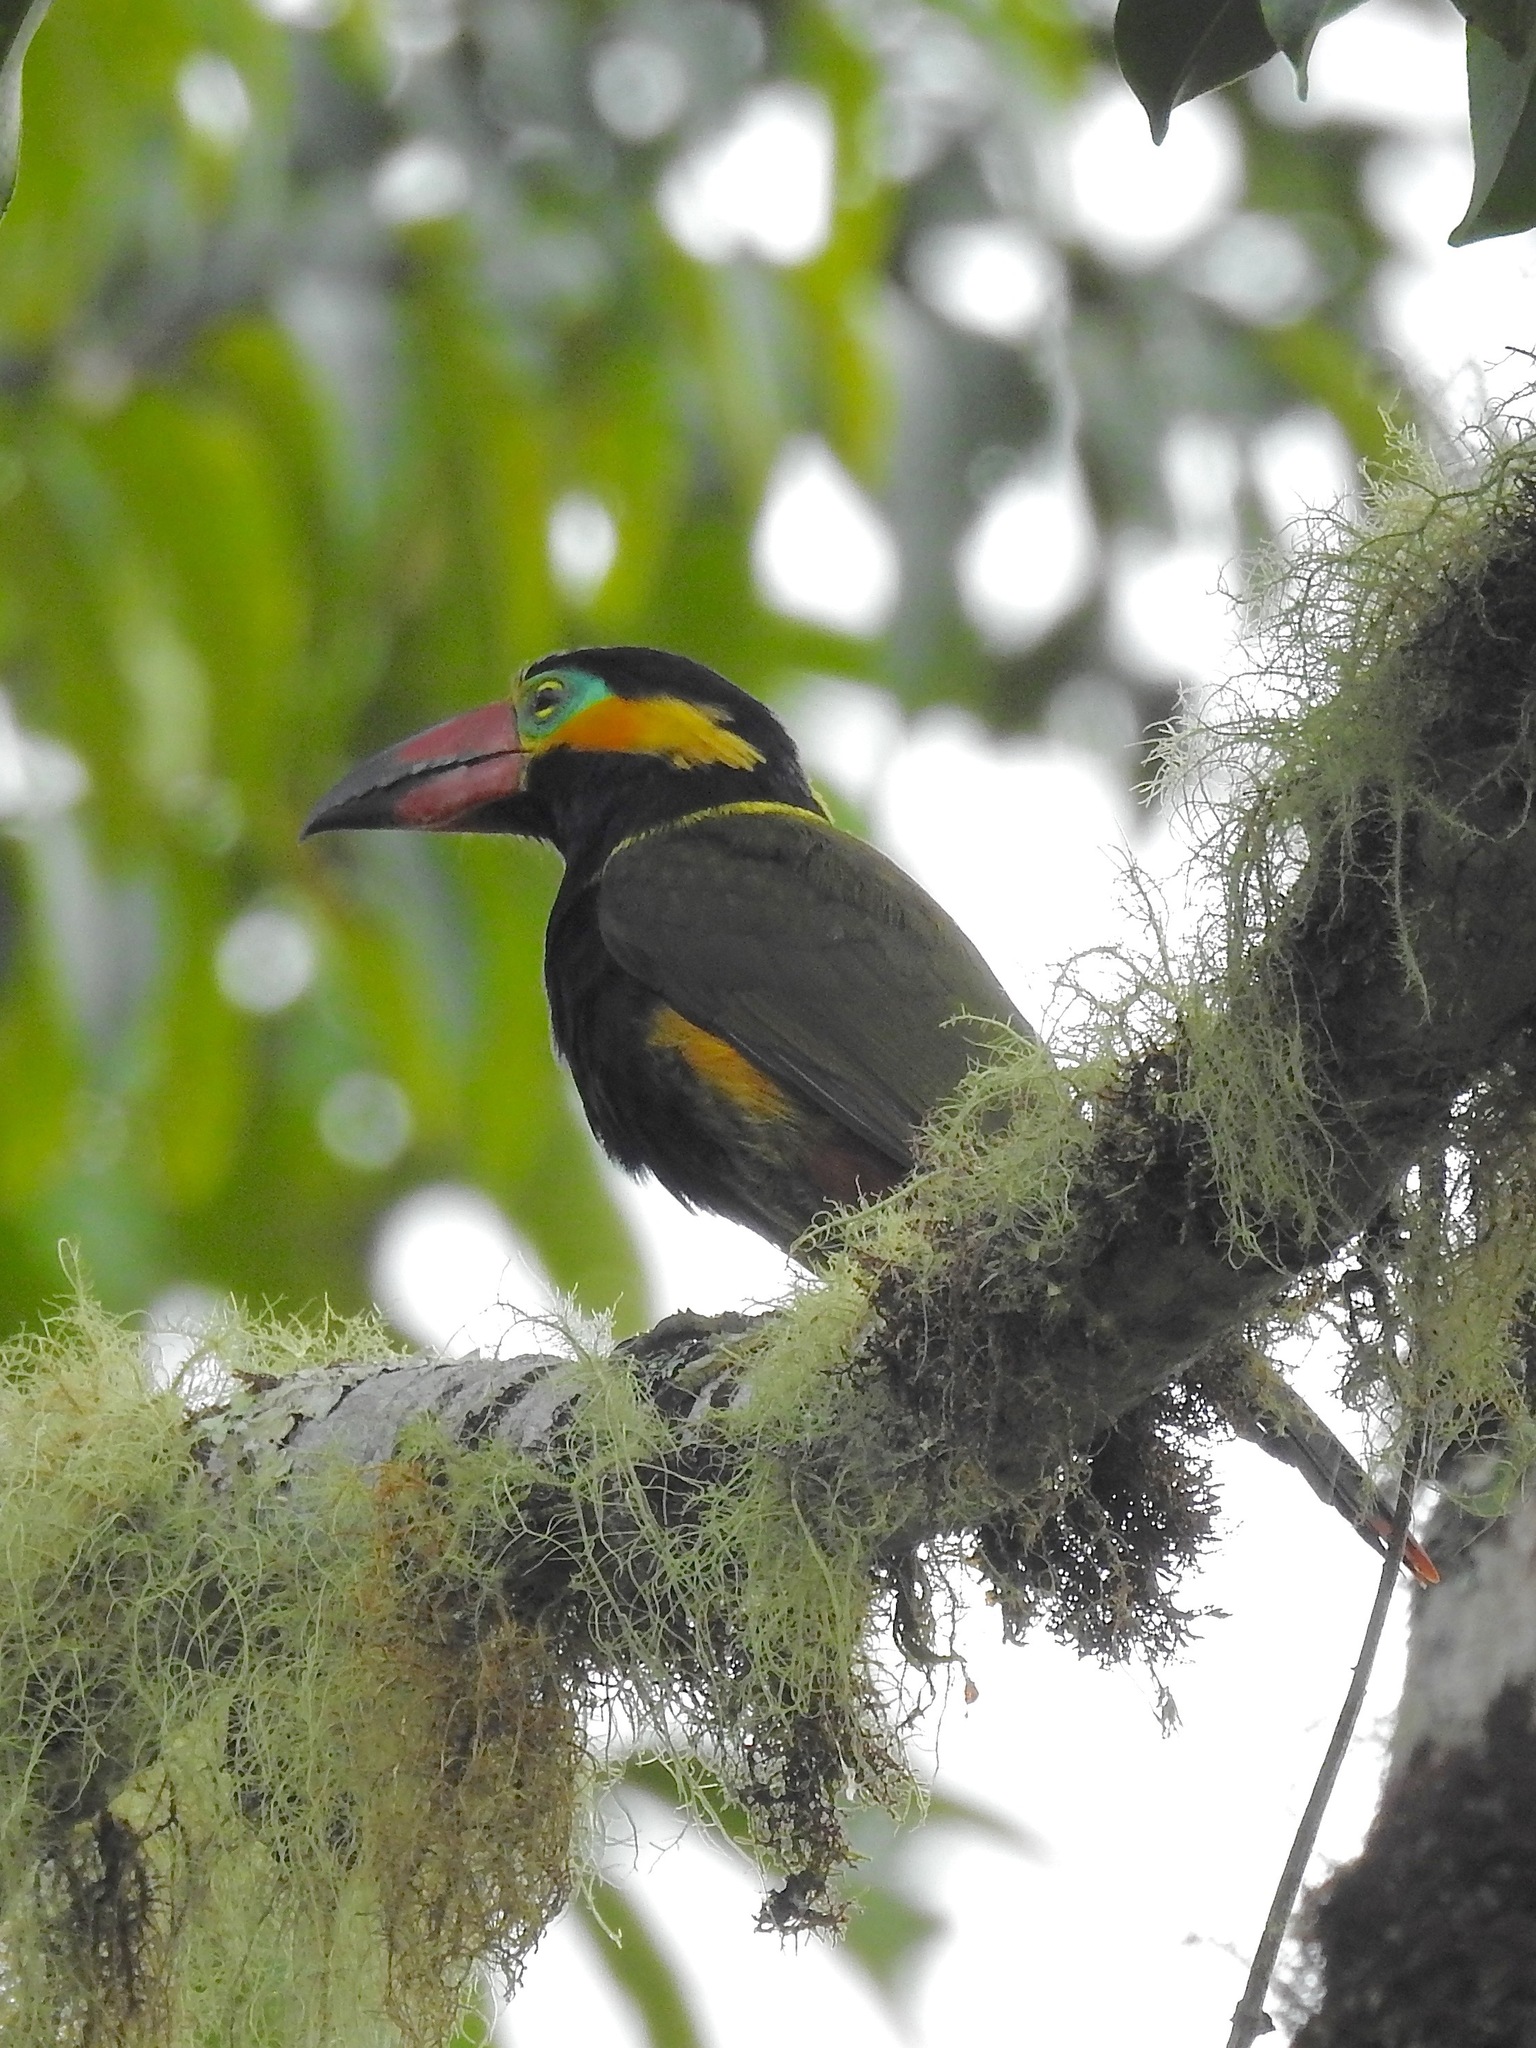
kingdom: Animalia
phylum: Chordata
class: Aves
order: Piciformes
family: Ramphastidae
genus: Selenidera
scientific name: Selenidera reinwardtii
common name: Golden-collared toucanet
